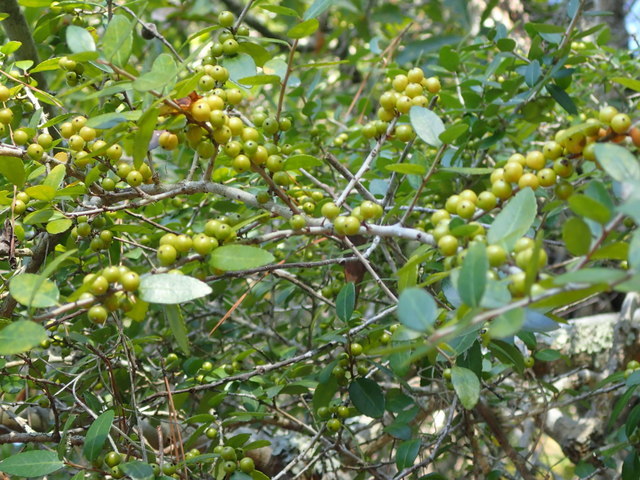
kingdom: Plantae
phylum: Tracheophyta
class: Magnoliopsida
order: Aquifoliales
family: Aquifoliaceae
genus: Ilex
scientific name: Ilex vomitoria
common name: Yaupon holly
